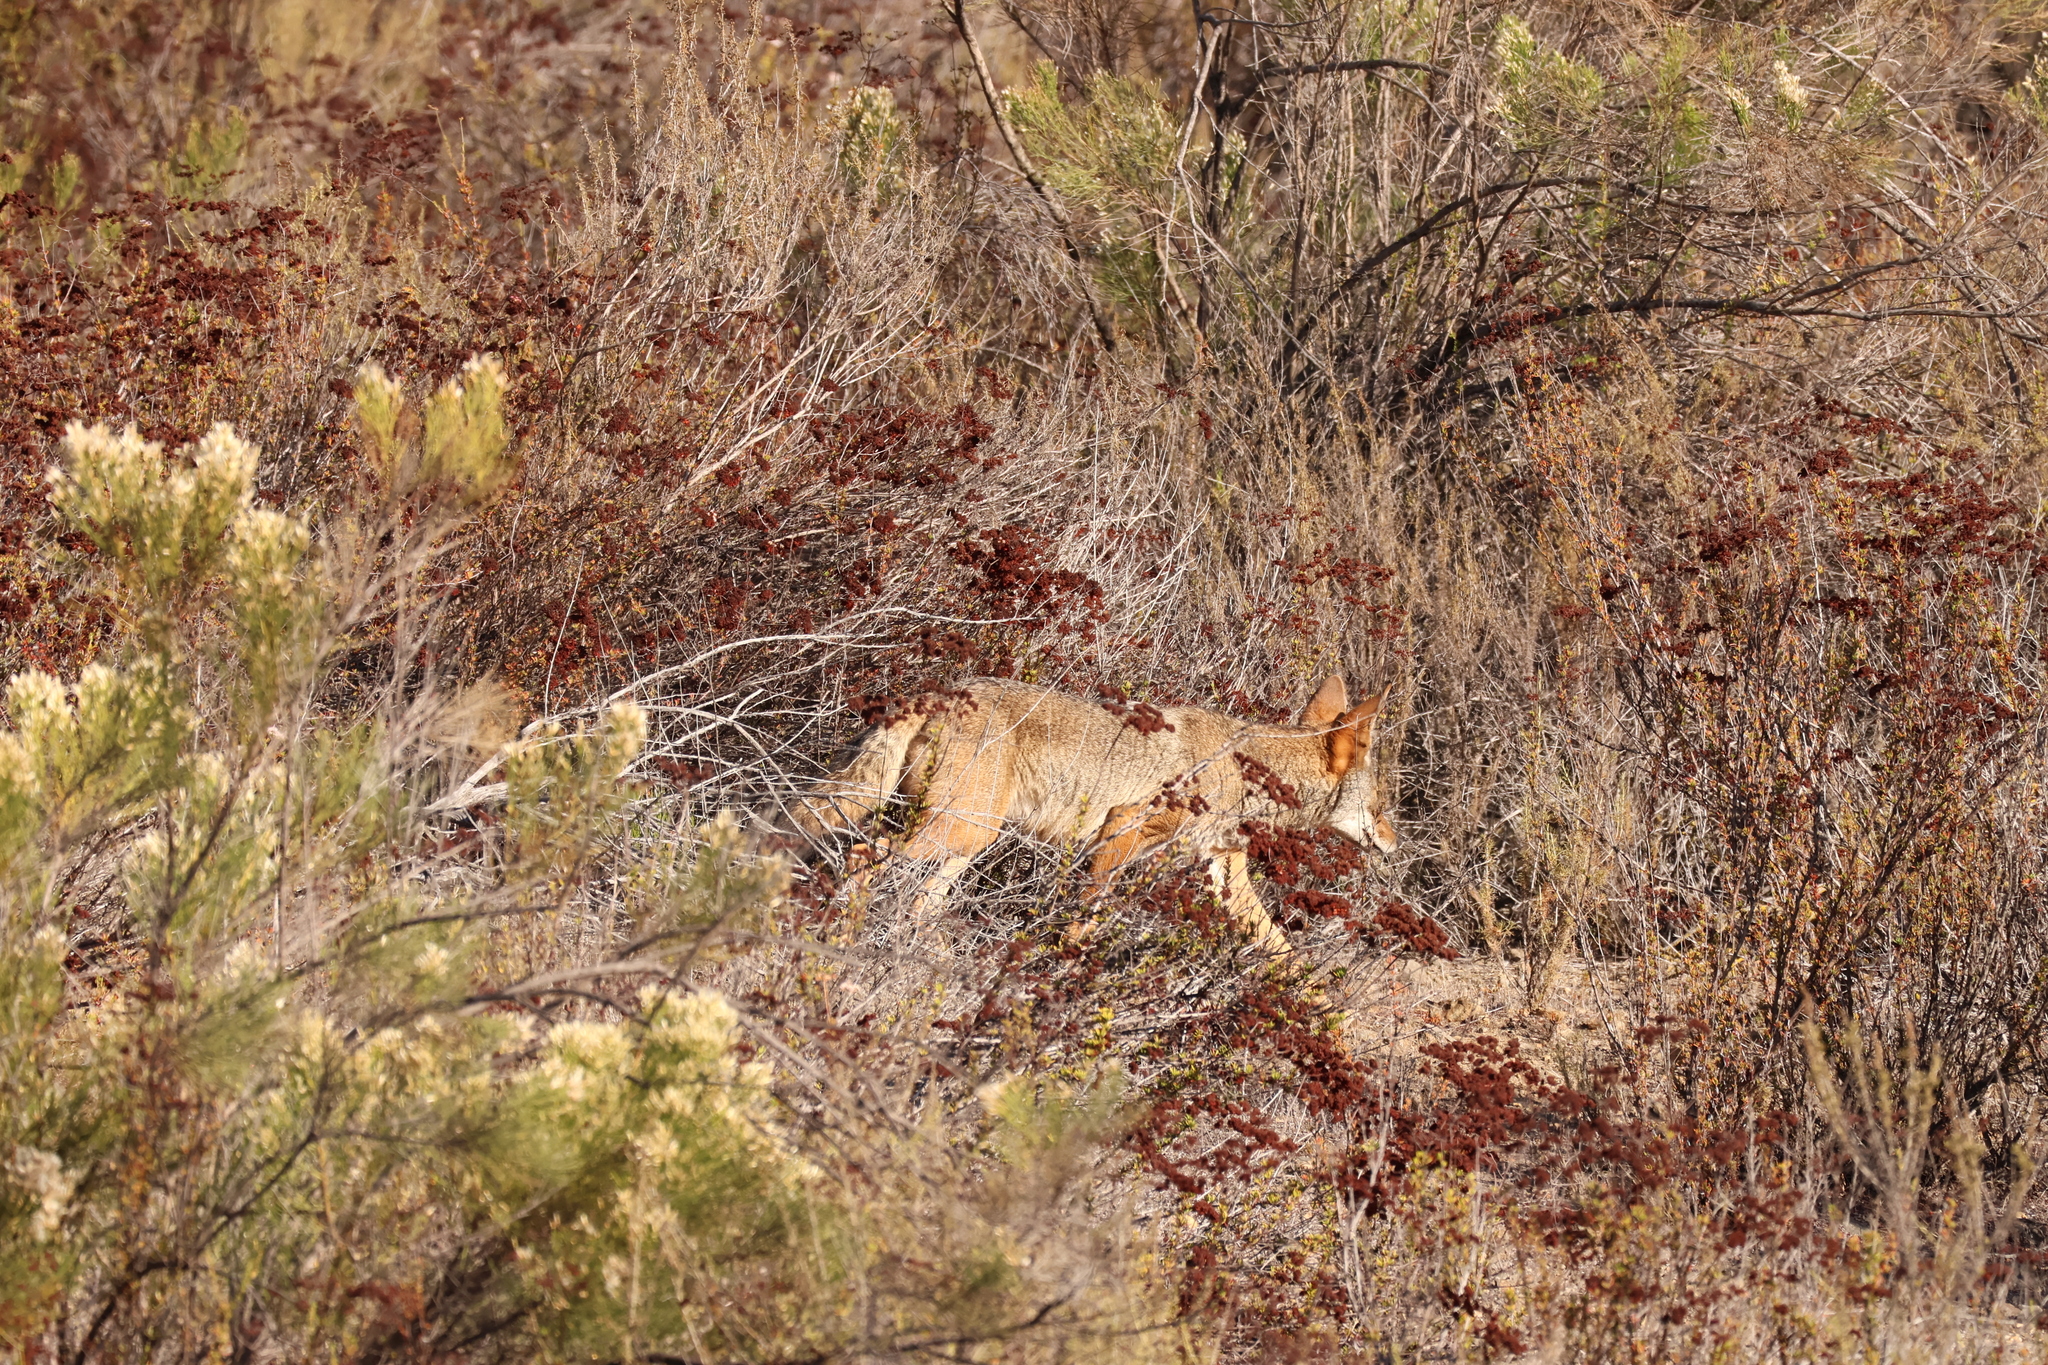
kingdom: Animalia
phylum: Chordata
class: Mammalia
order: Carnivora
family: Canidae
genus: Canis
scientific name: Canis latrans
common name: Coyote
